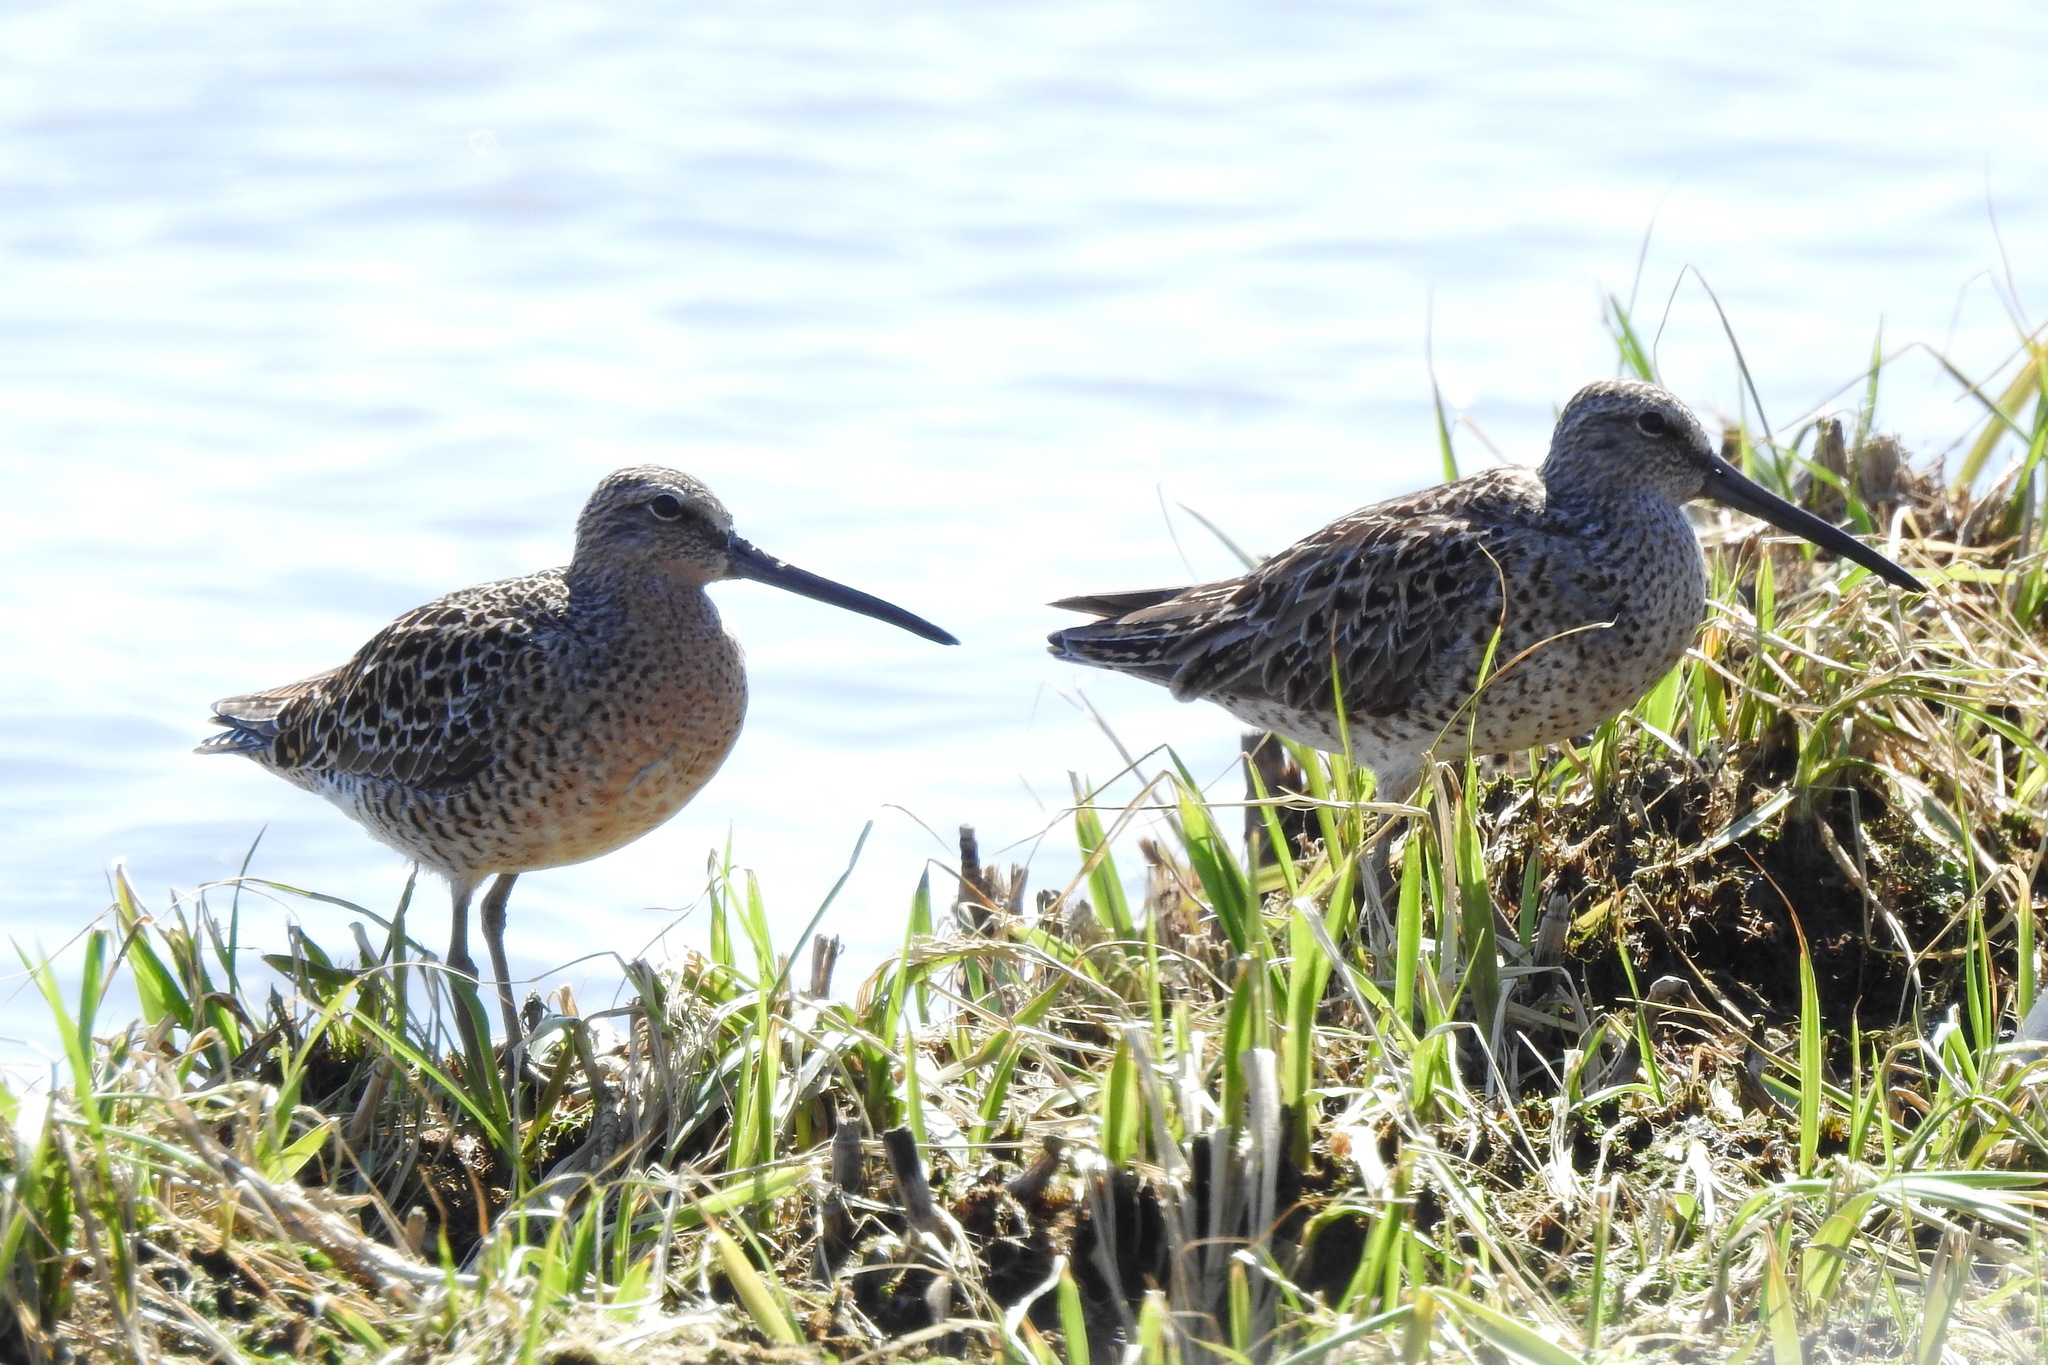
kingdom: Animalia
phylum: Chordata
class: Aves
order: Charadriiformes
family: Scolopacidae
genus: Limnodromus
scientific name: Limnodromus griseus
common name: Short-billed dowitcher
